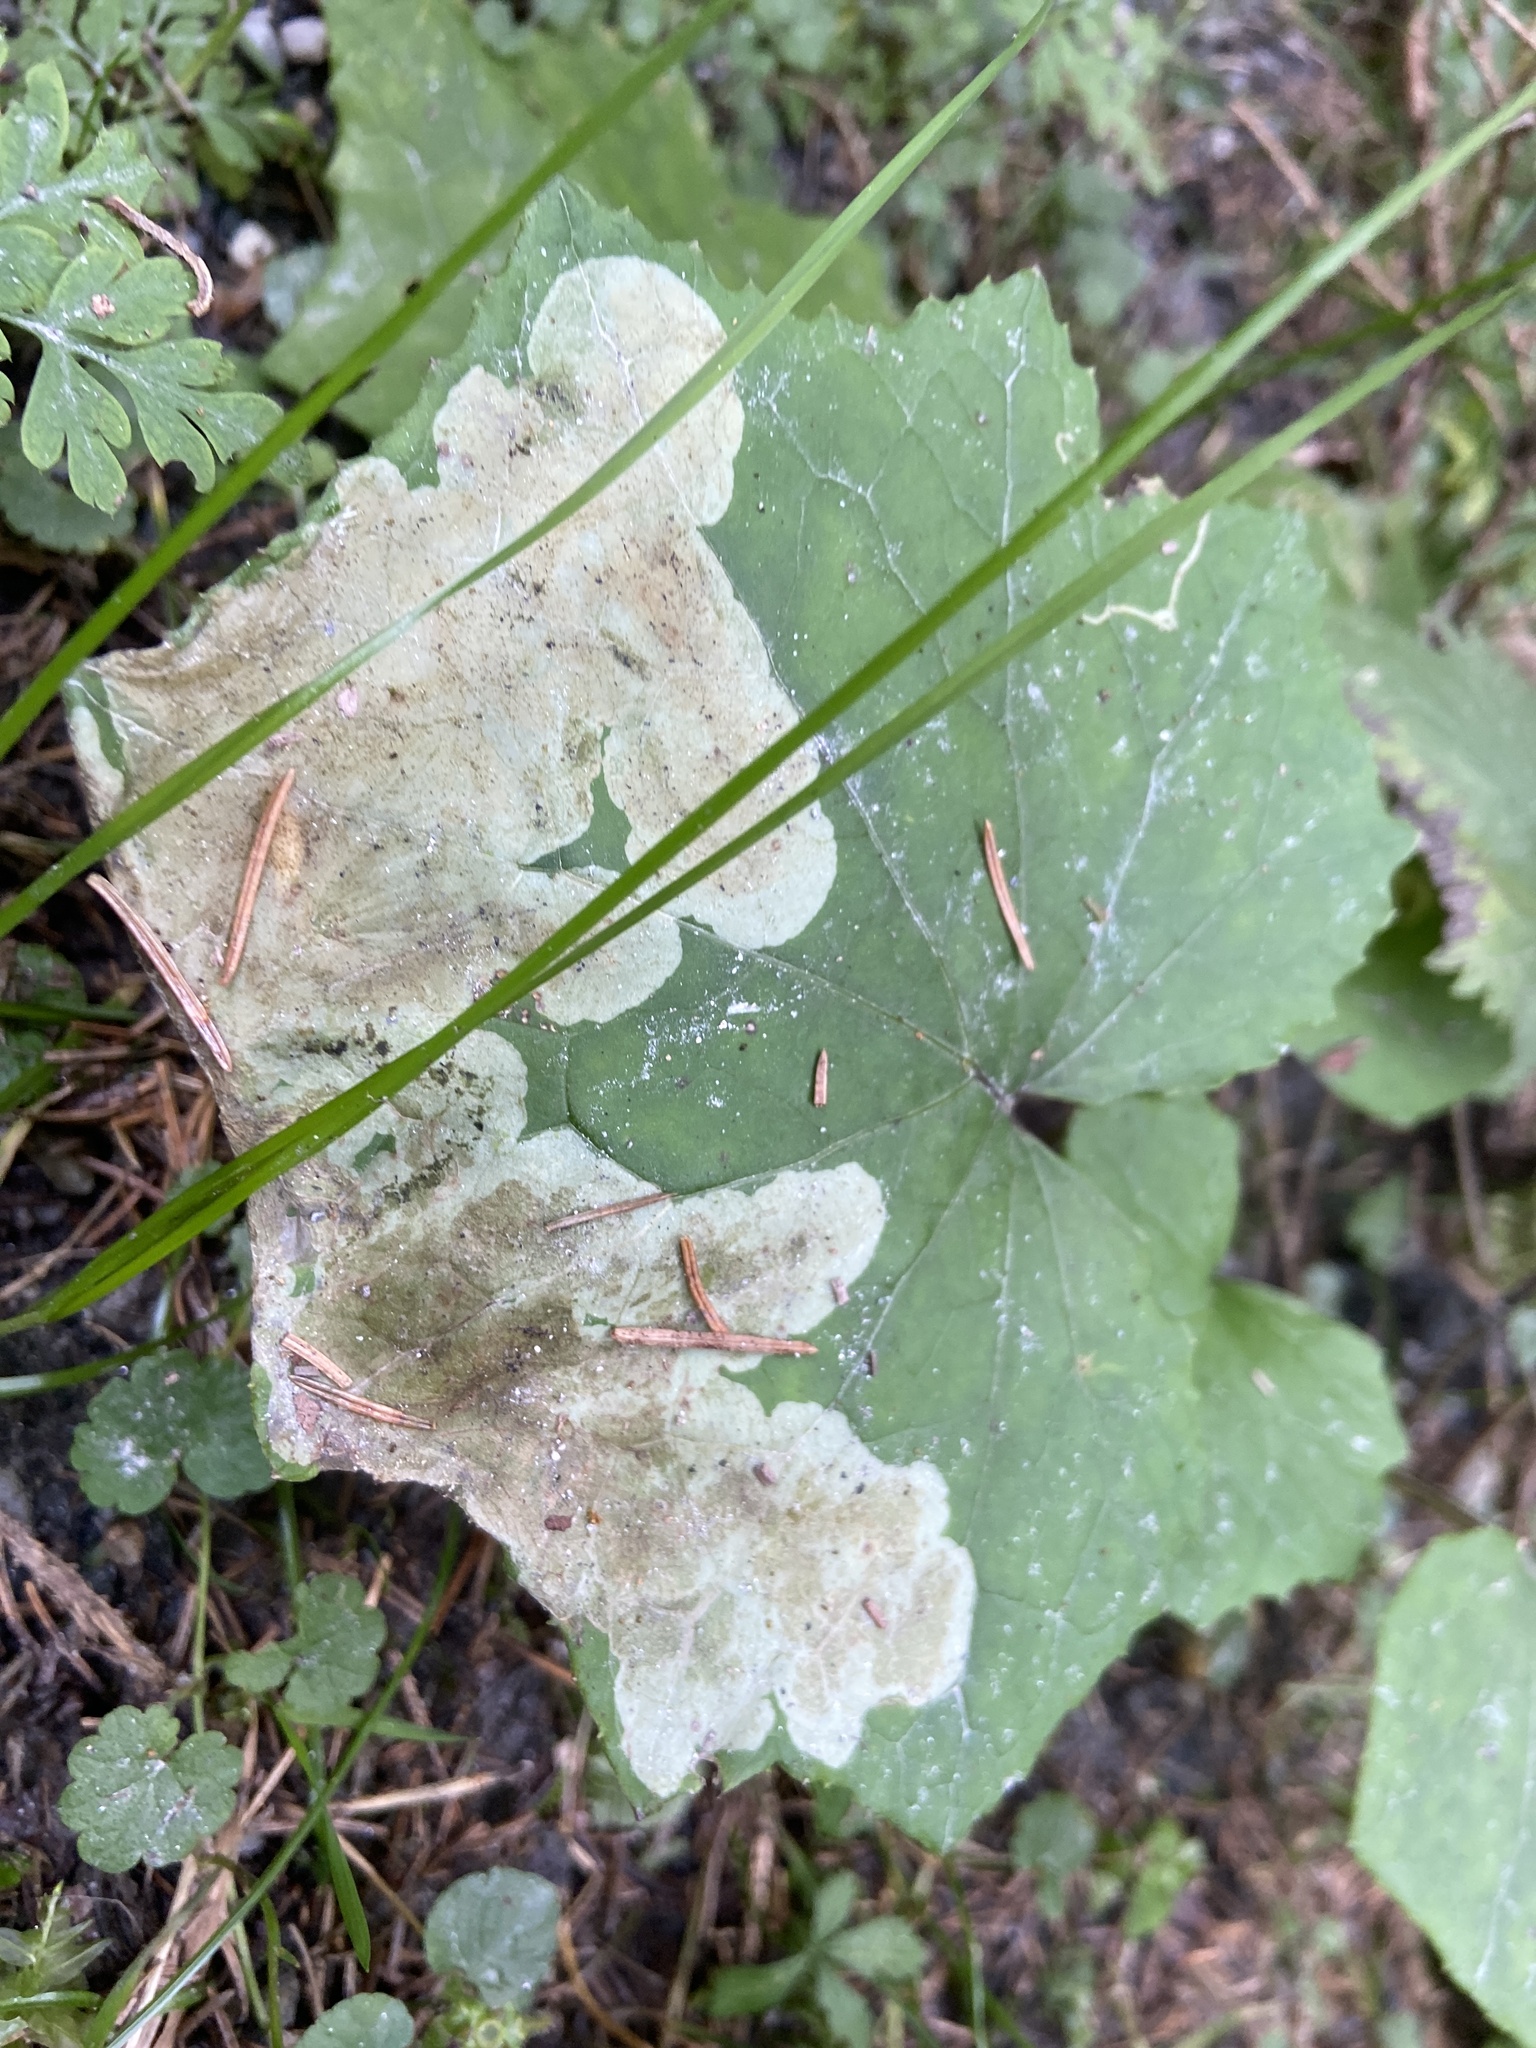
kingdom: Animalia
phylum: Arthropoda
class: Insecta
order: Diptera
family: Tephritidae
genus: Acidia
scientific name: Acidia cognata
